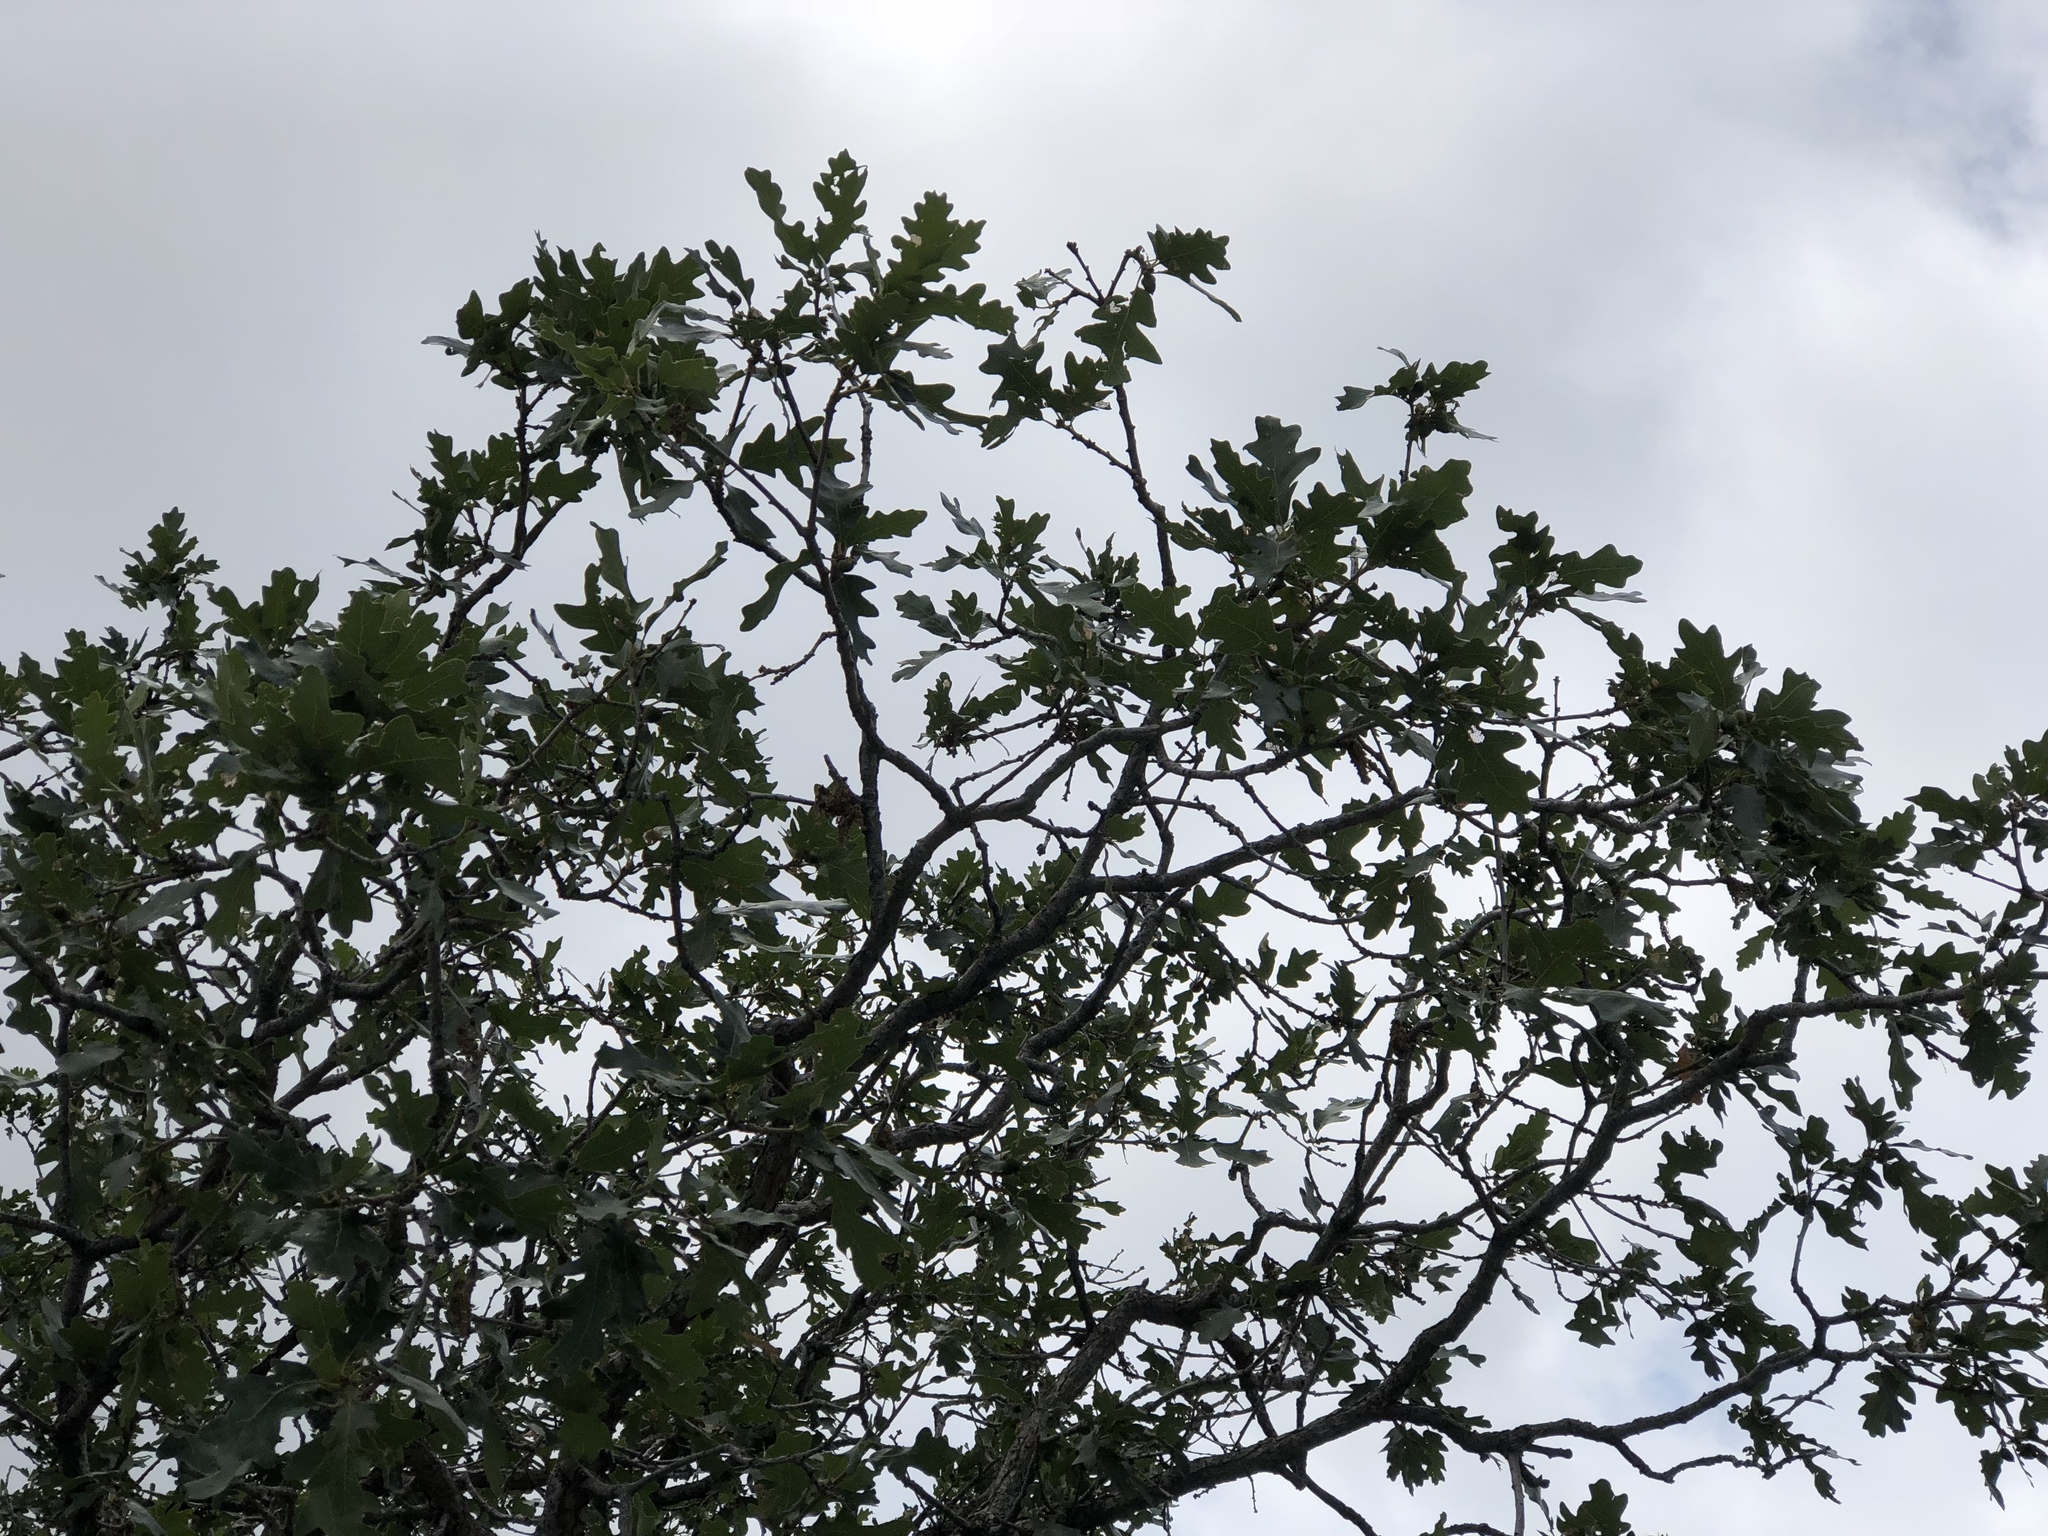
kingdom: Plantae
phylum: Tracheophyta
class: Magnoliopsida
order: Fagales
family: Fagaceae
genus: Quercus
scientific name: Quercus gambelii
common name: Gambel oak
